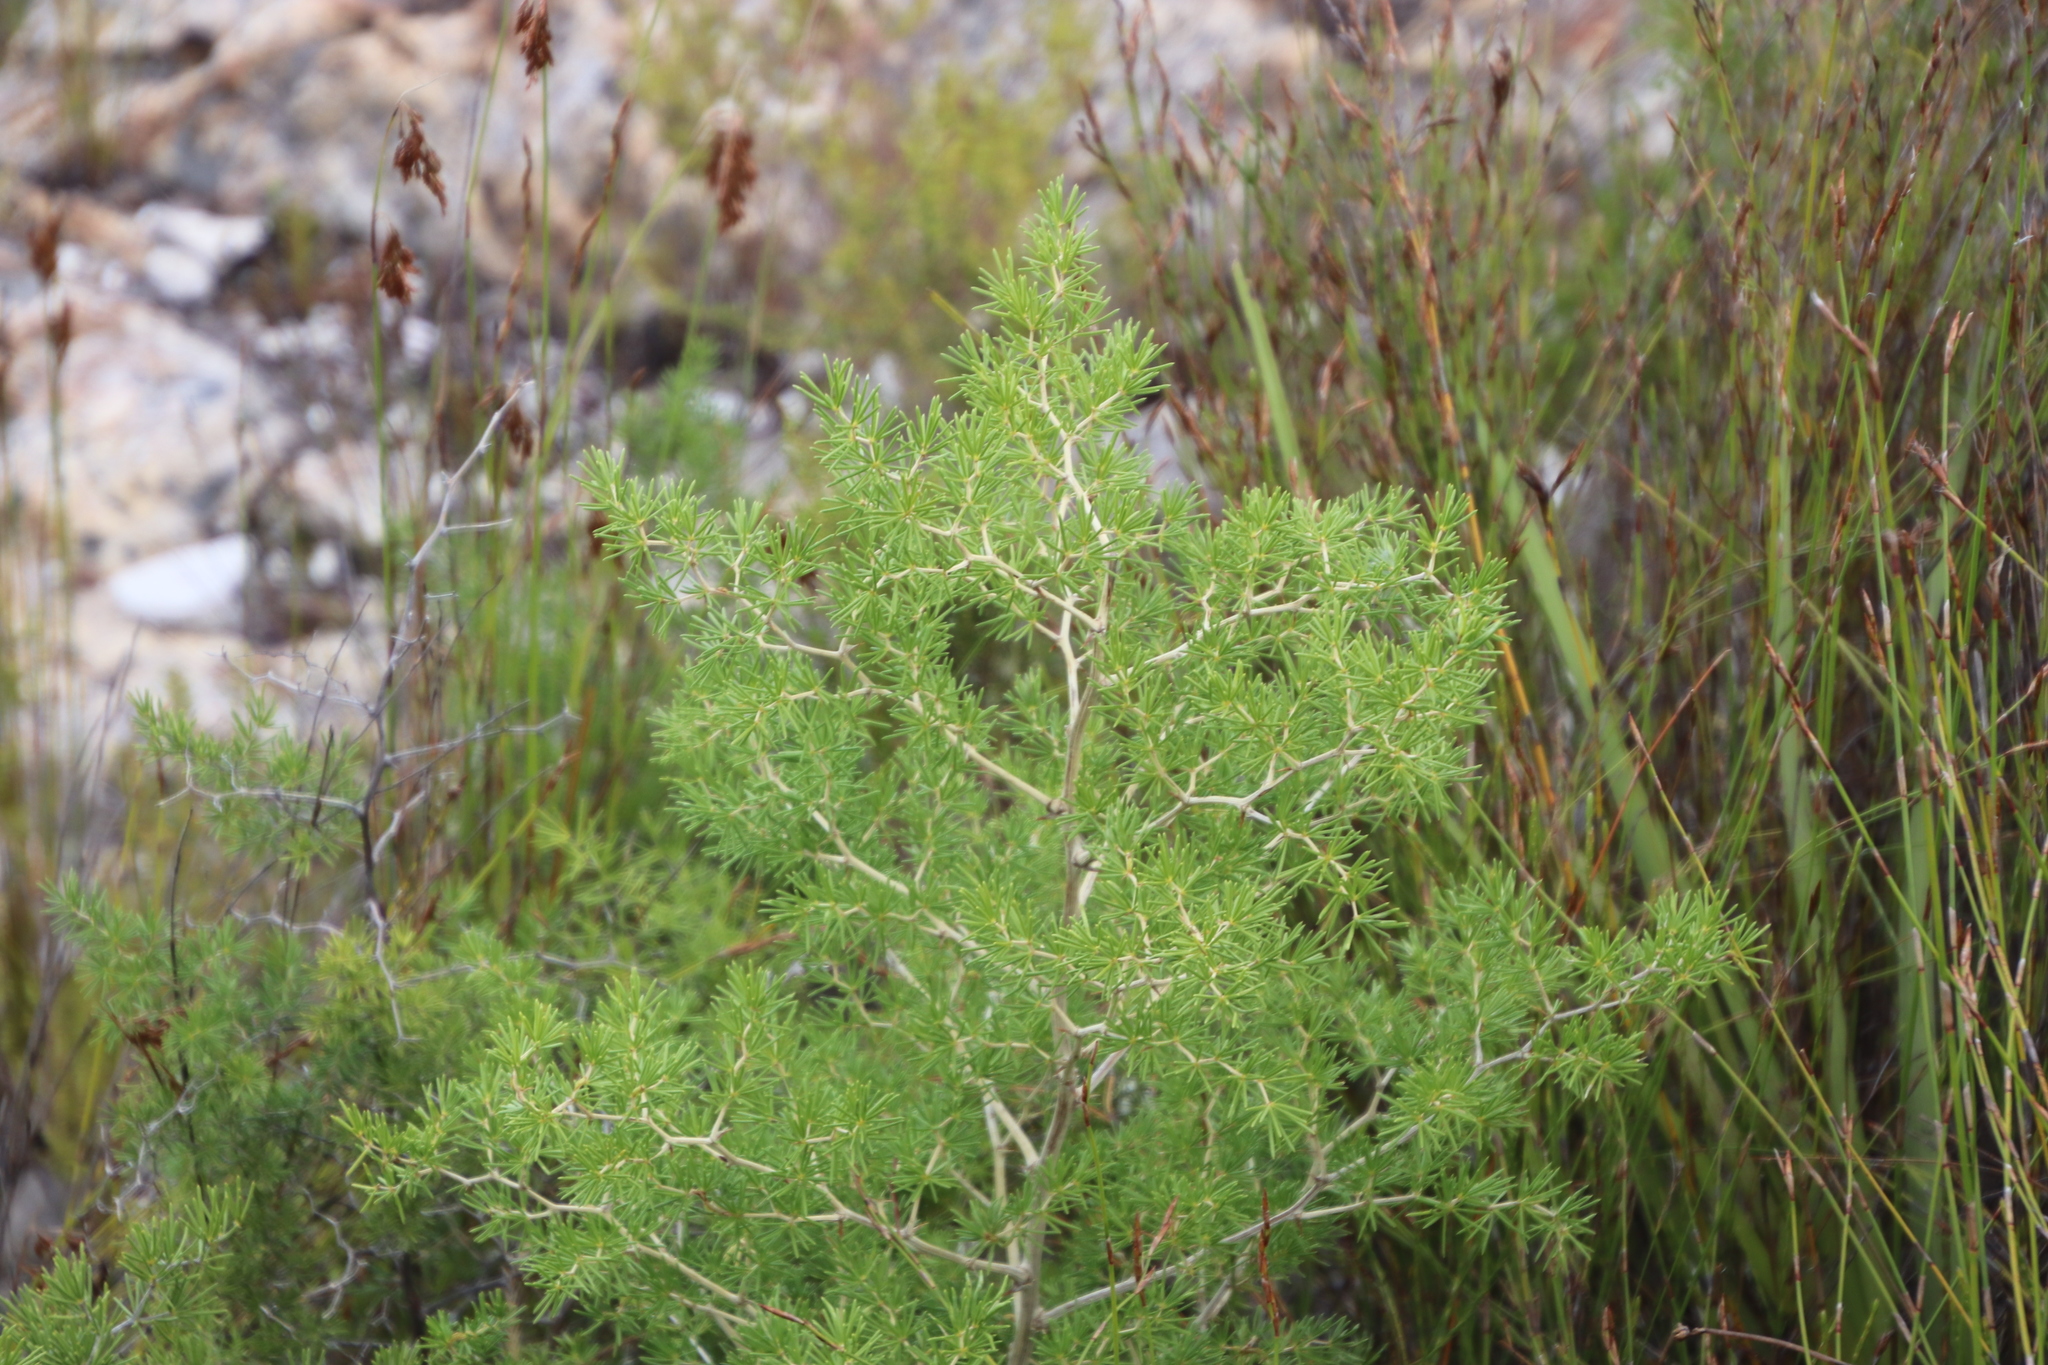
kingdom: Plantae
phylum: Tracheophyta
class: Liliopsida
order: Asparagales
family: Asparagaceae
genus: Asparagus
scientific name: Asparagus lignosus
